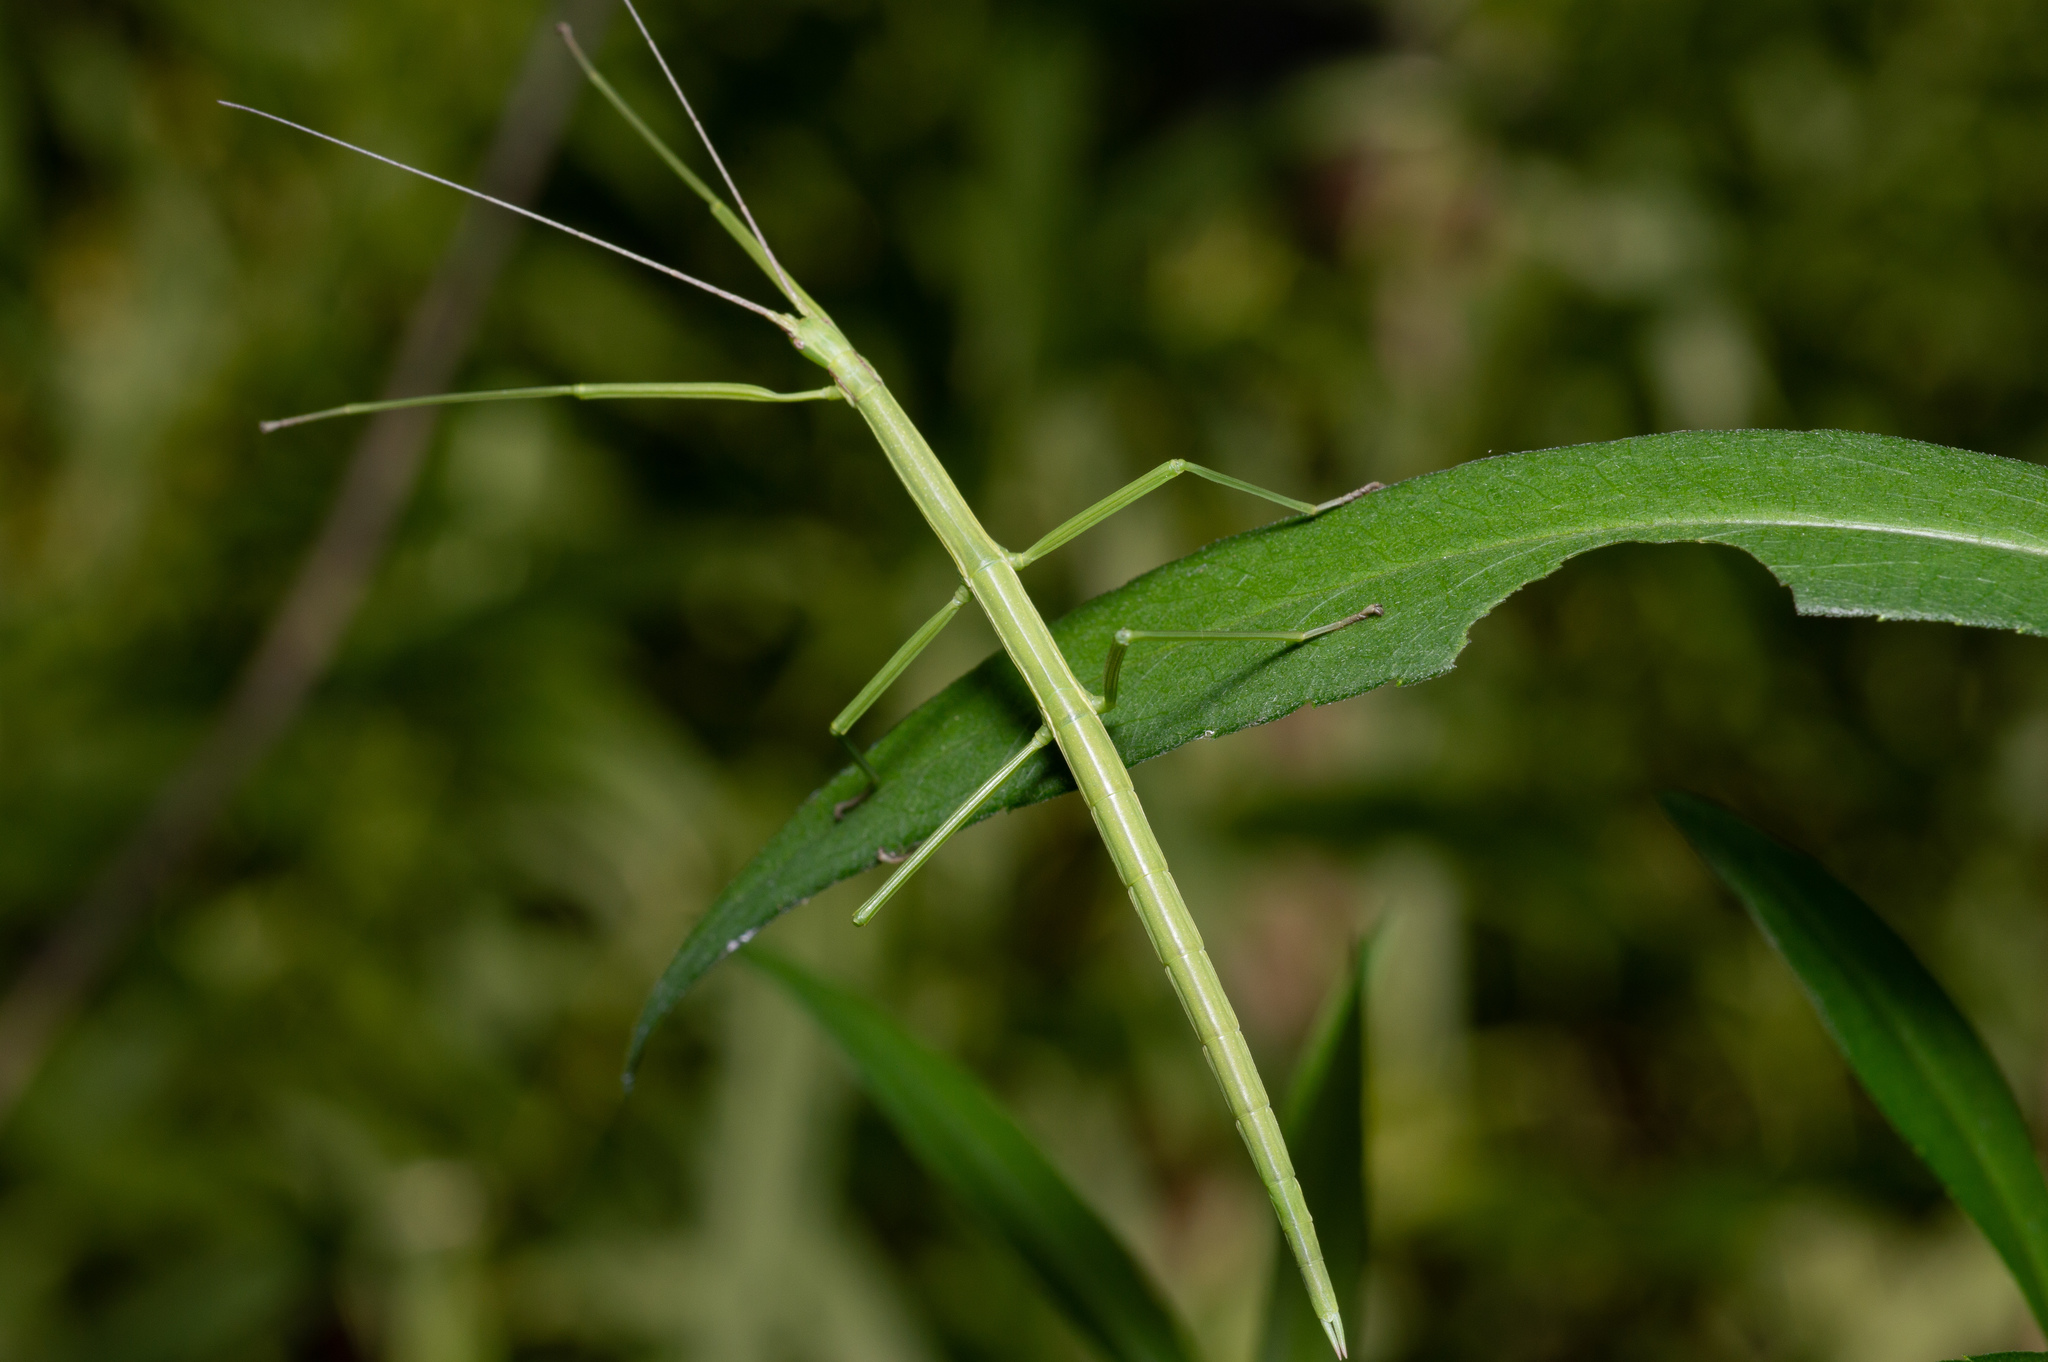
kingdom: Animalia
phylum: Arthropoda
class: Insecta
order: Phasmida
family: Diapheromeridae
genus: Manomera
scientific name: Manomera blatchleyi
